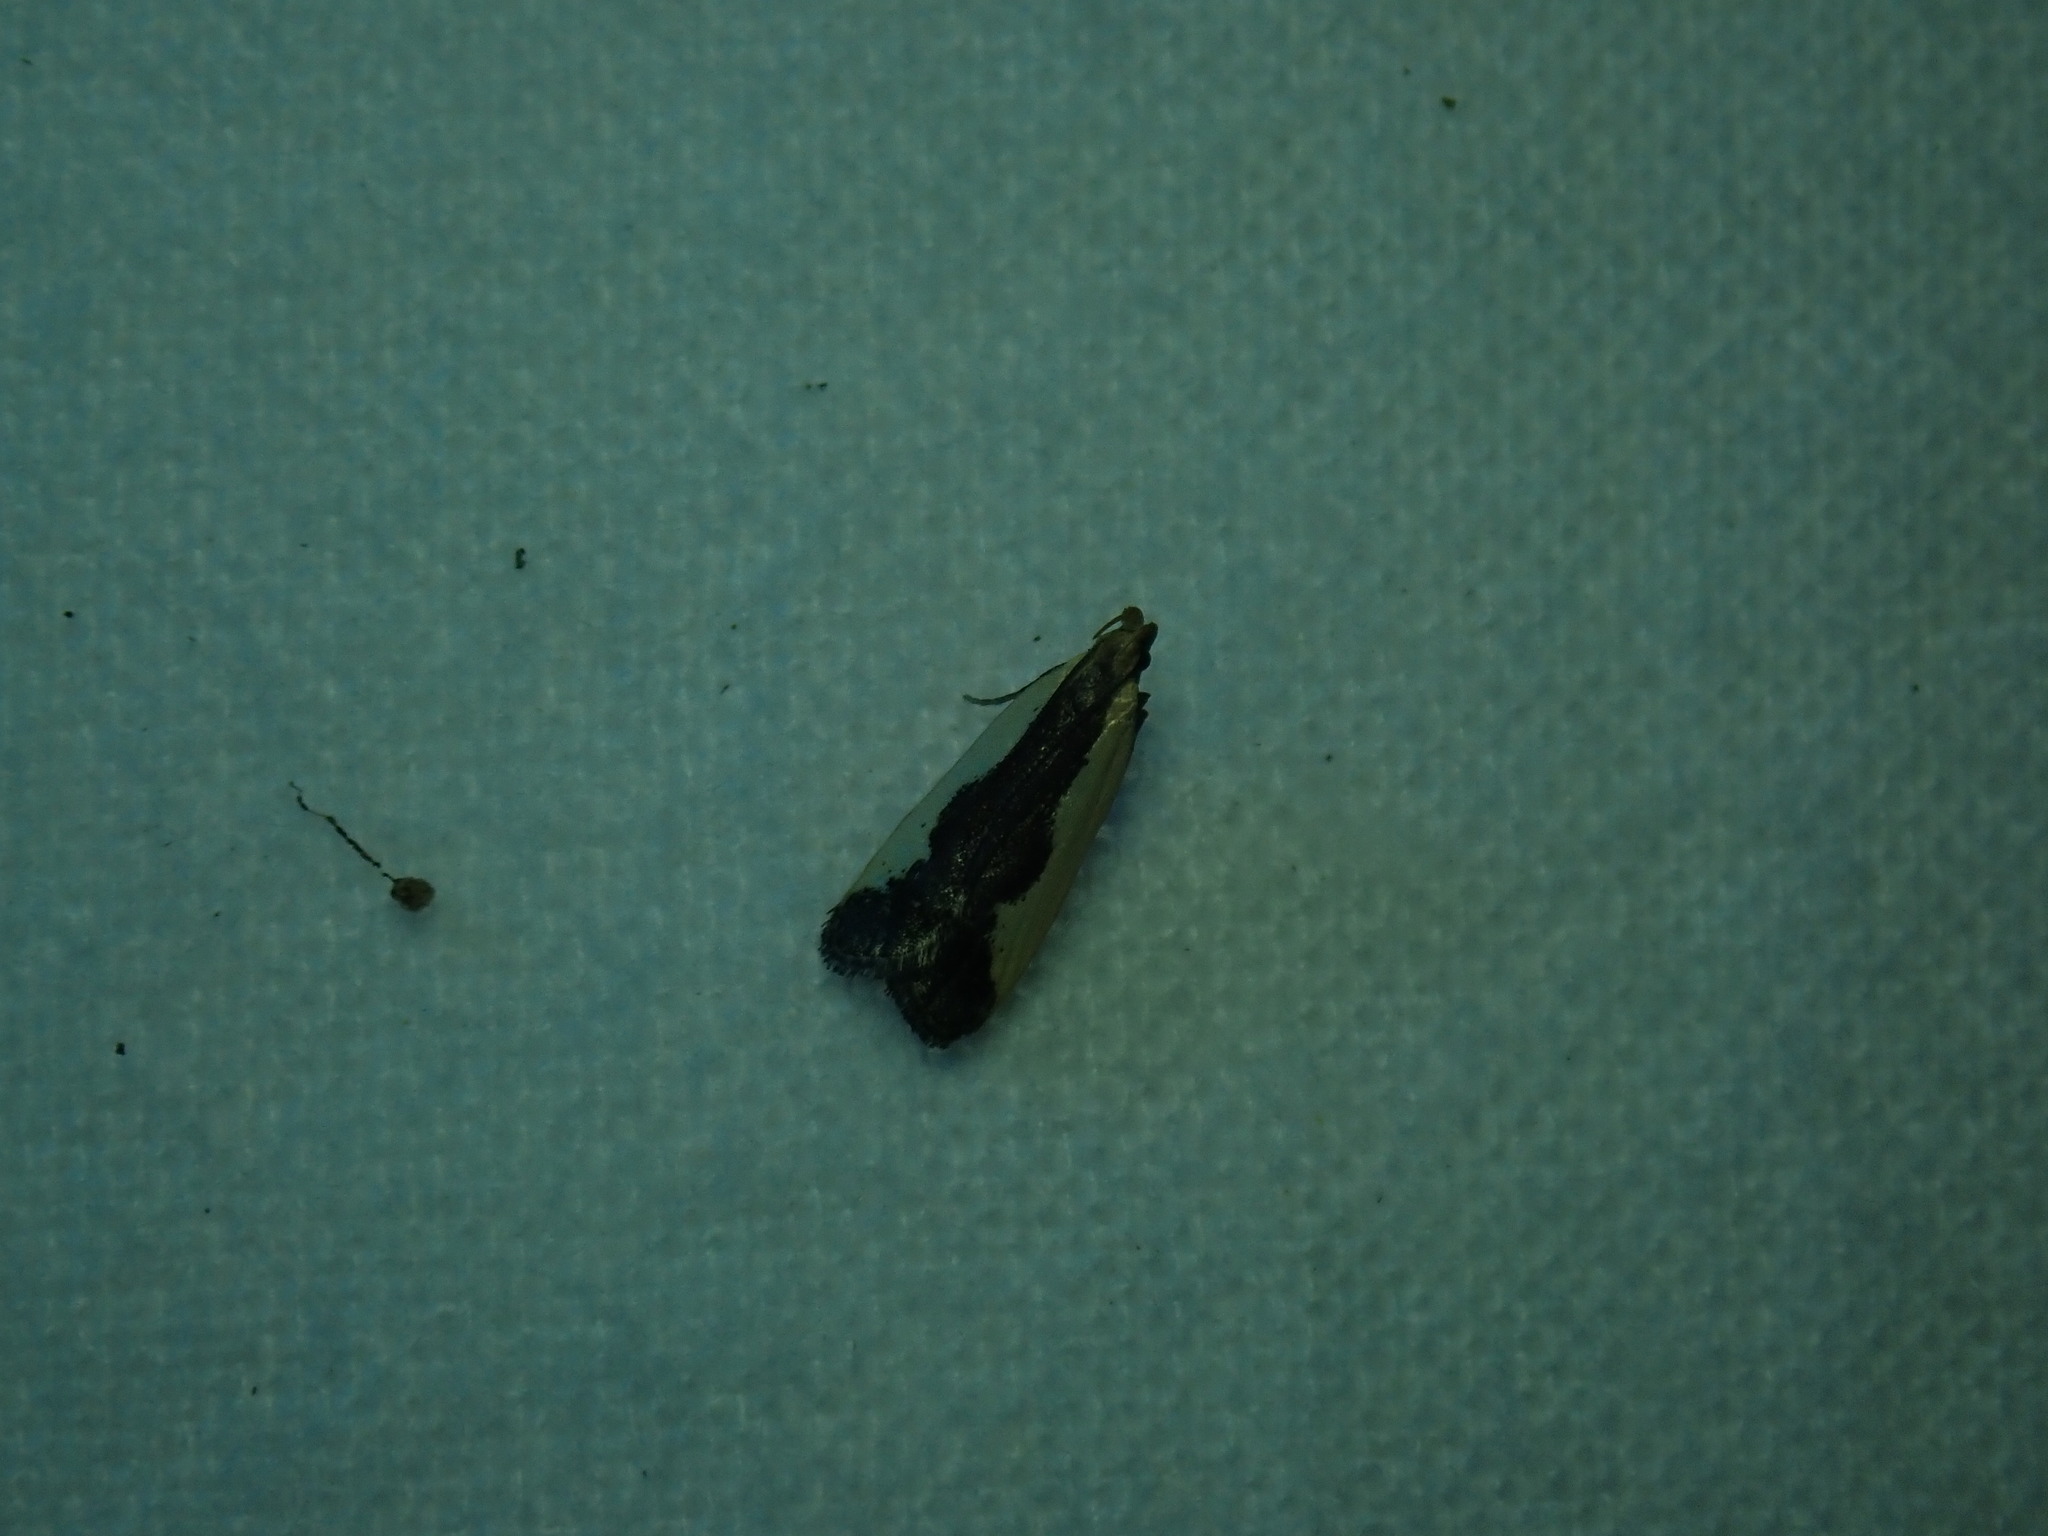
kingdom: Animalia
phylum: Arthropoda
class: Insecta
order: Lepidoptera
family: Gelechiidae
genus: Dichomeris
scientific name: Dichomeris inserrata
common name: Indented dichomeris moth
